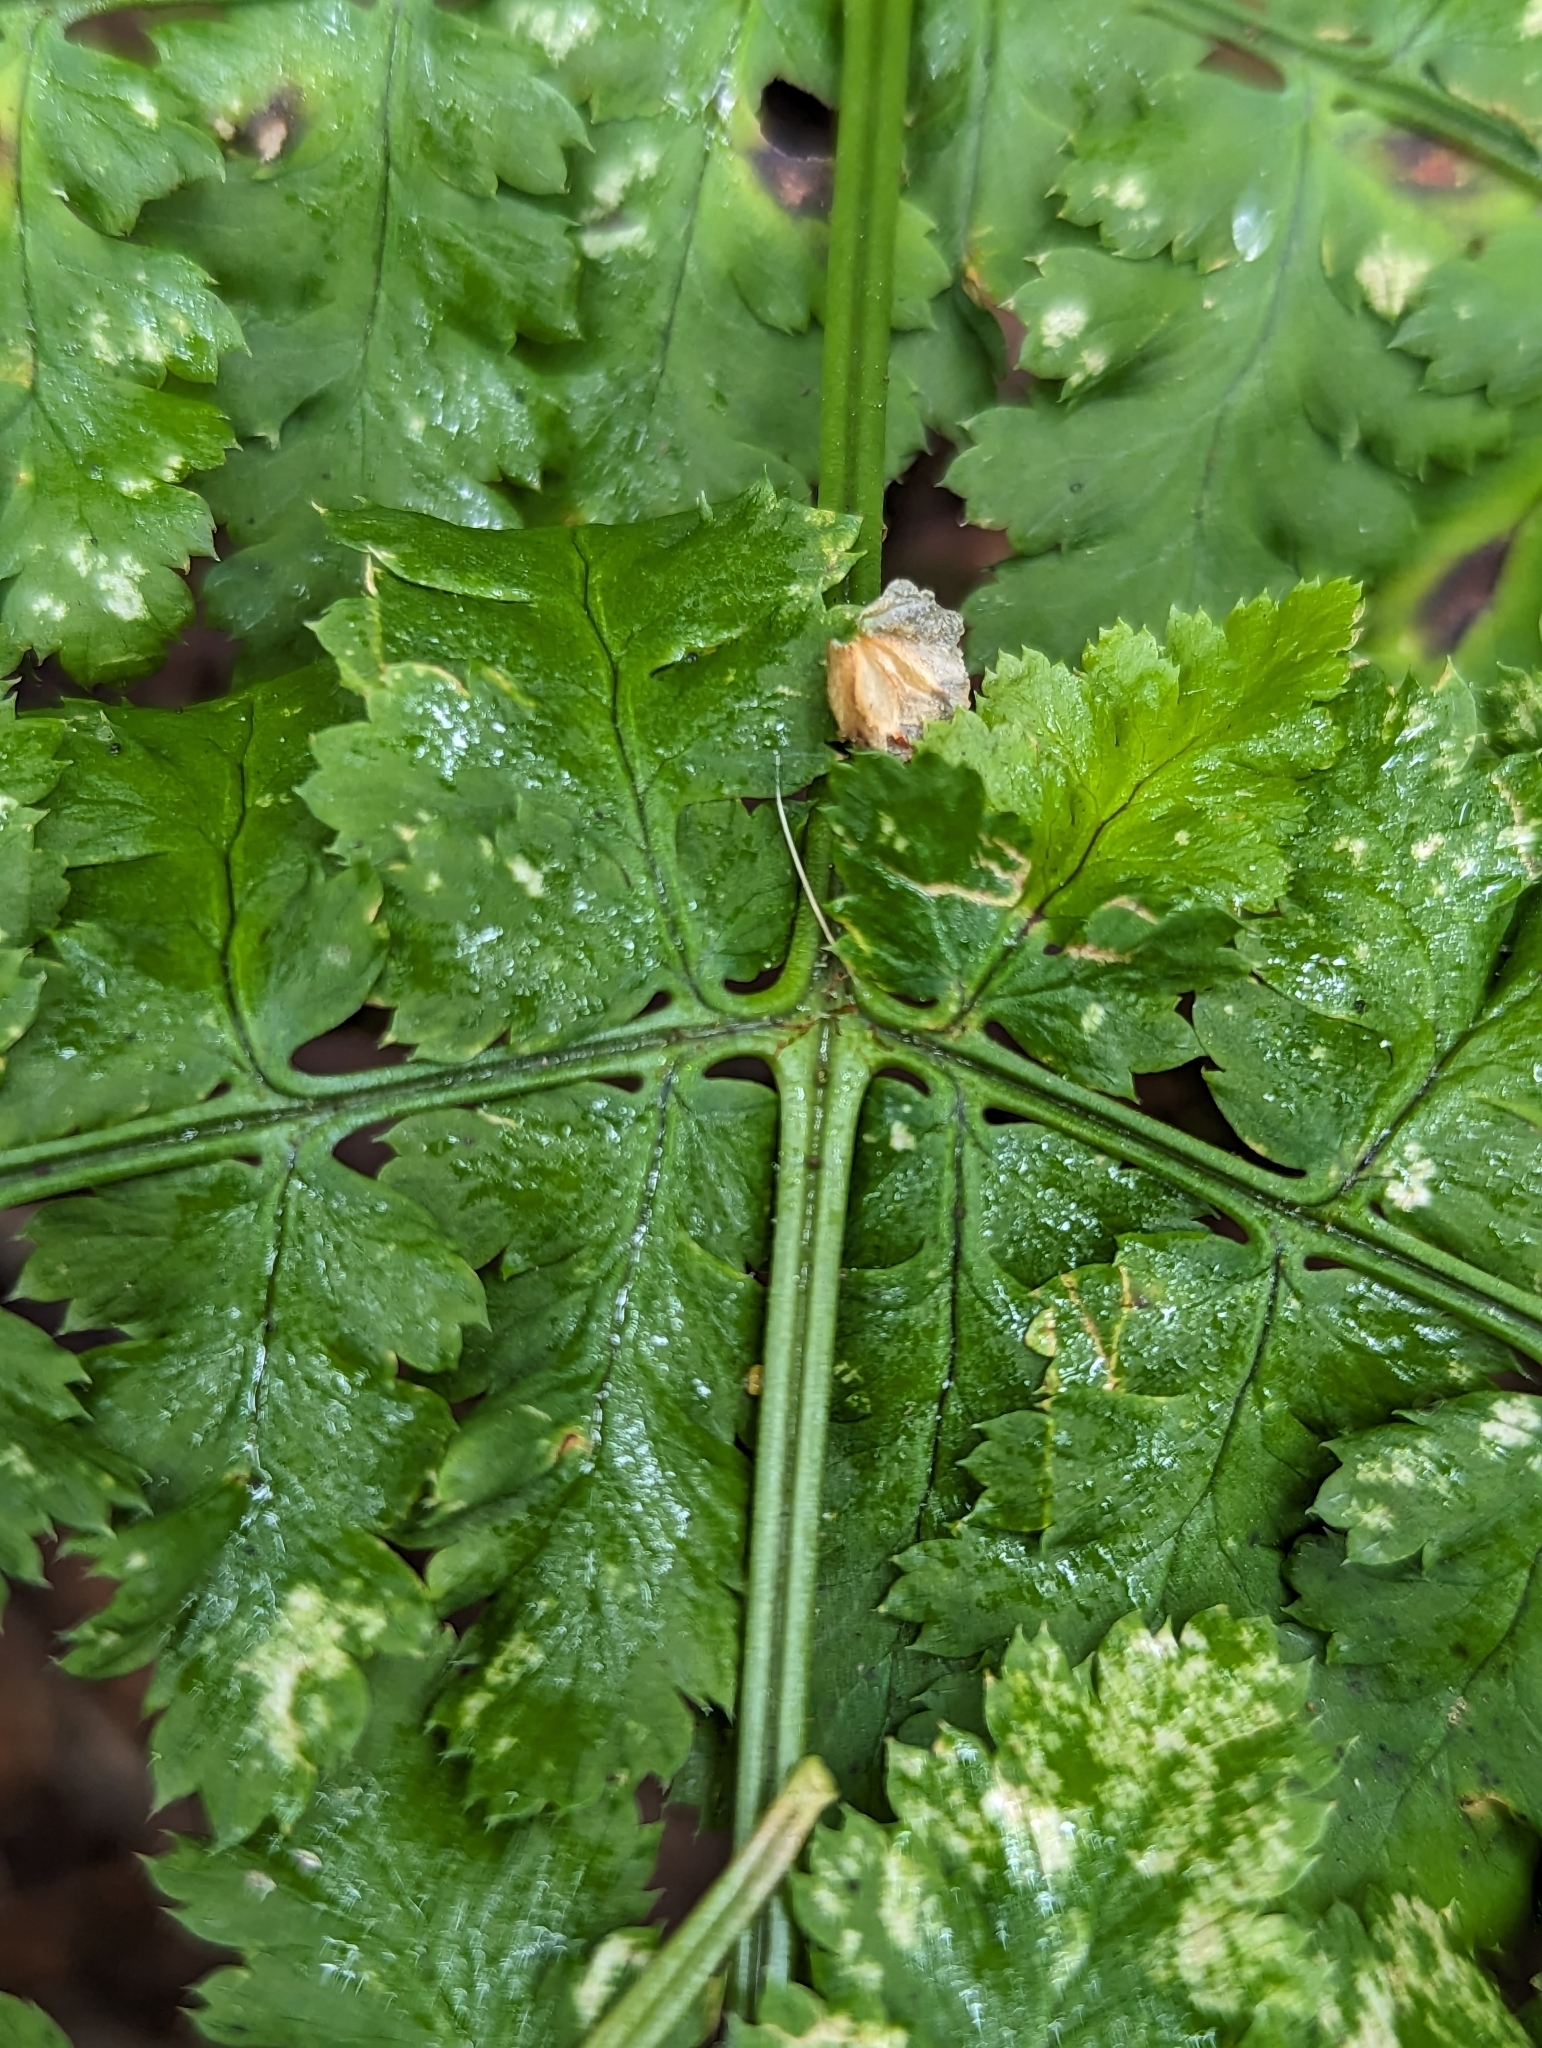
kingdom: Plantae
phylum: Tracheophyta
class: Polypodiopsida
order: Polypodiales
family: Dryopteridaceae
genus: Dryopteris
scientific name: Dryopteris expansa
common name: Northern buckler fern
